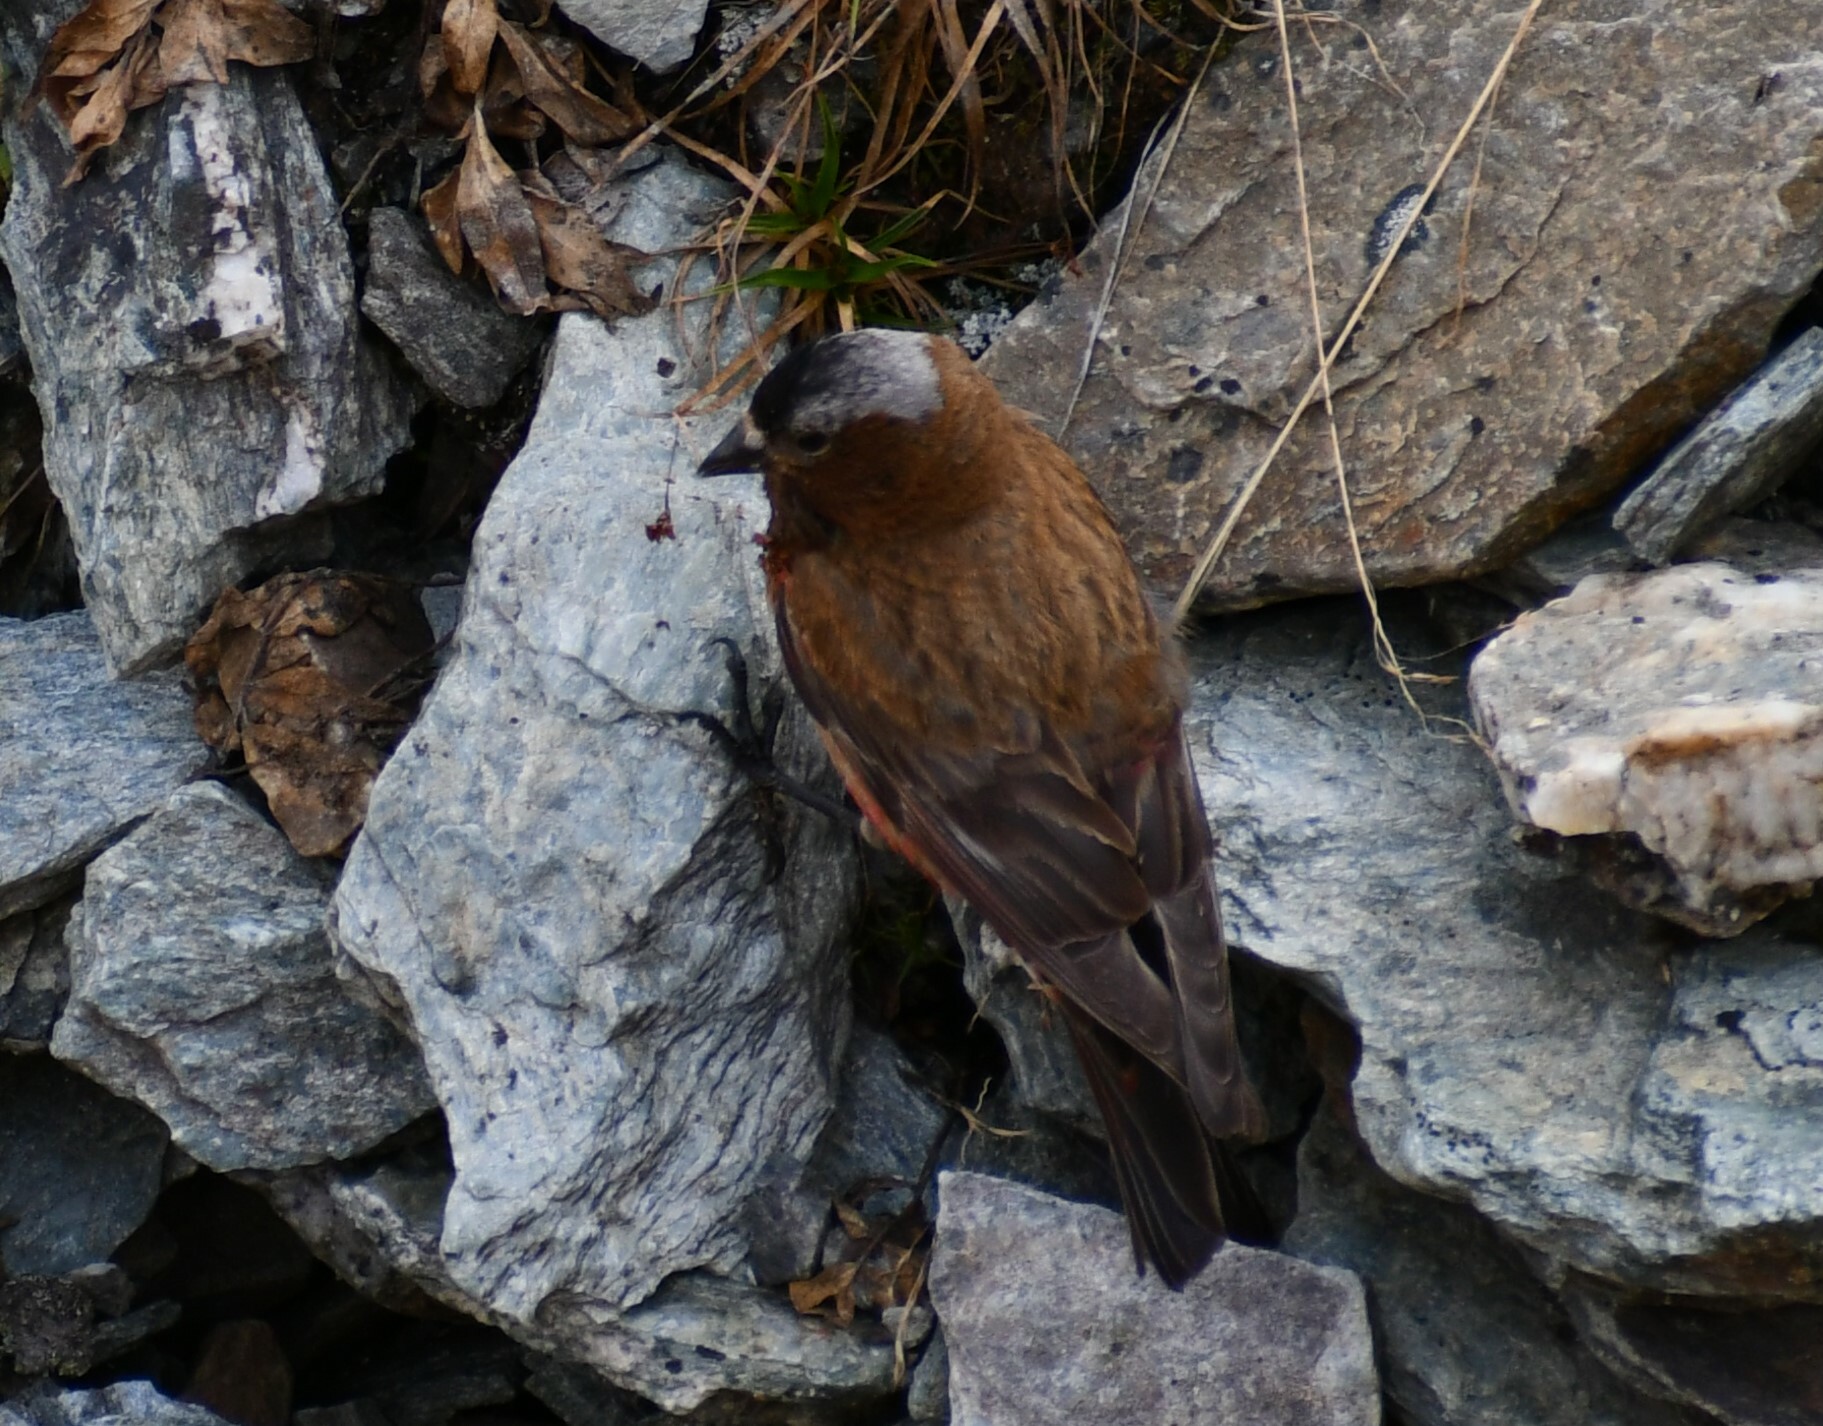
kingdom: Animalia
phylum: Chordata
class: Aves
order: Passeriformes
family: Fringillidae
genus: Leucosticte
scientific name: Leucosticte tephrocotis
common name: Gray-crowned rosy-finch
